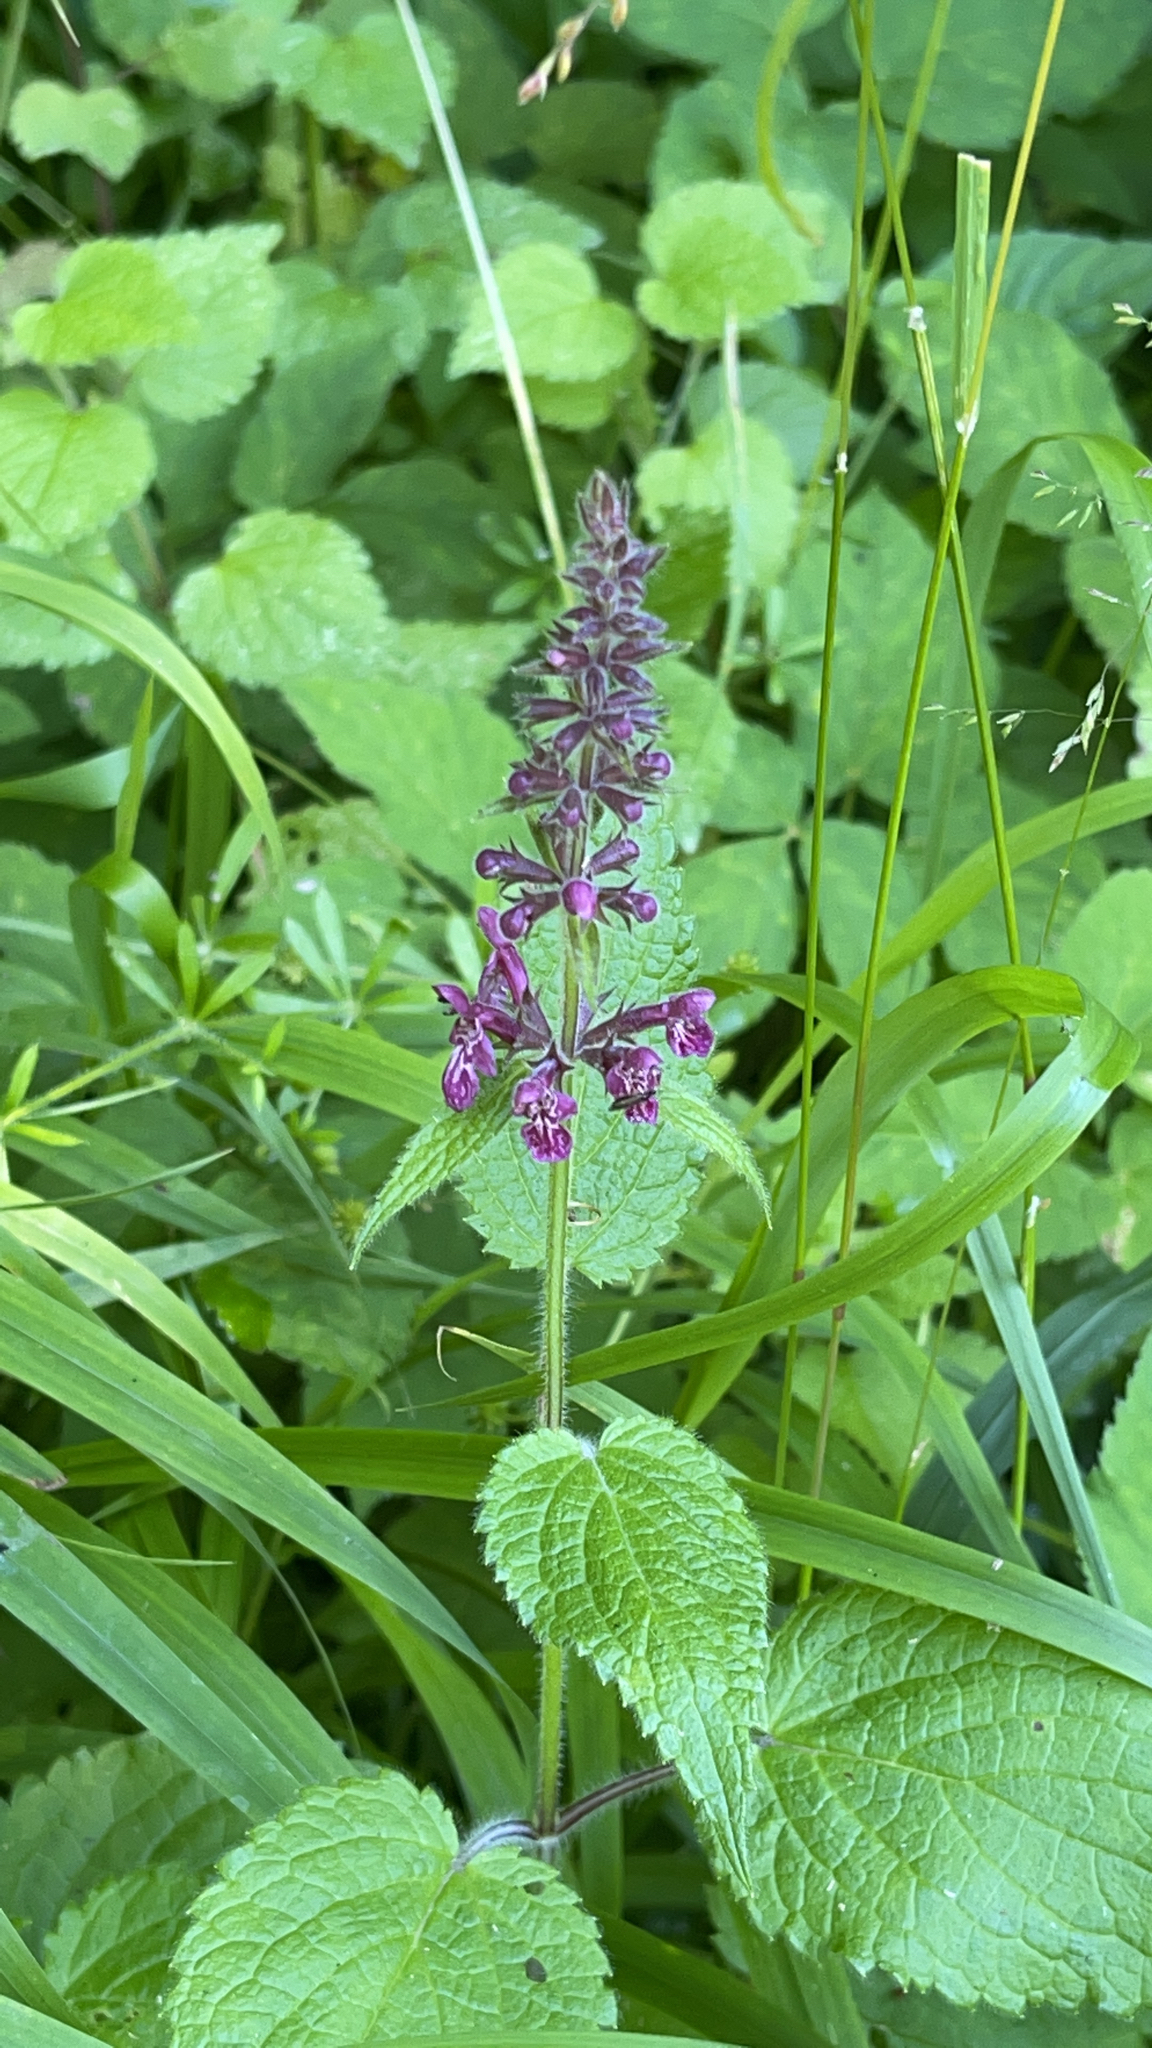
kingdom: Plantae
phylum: Tracheophyta
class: Magnoliopsida
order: Lamiales
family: Lamiaceae
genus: Stachys
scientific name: Stachys sylvatica
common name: Hedge woundwort
